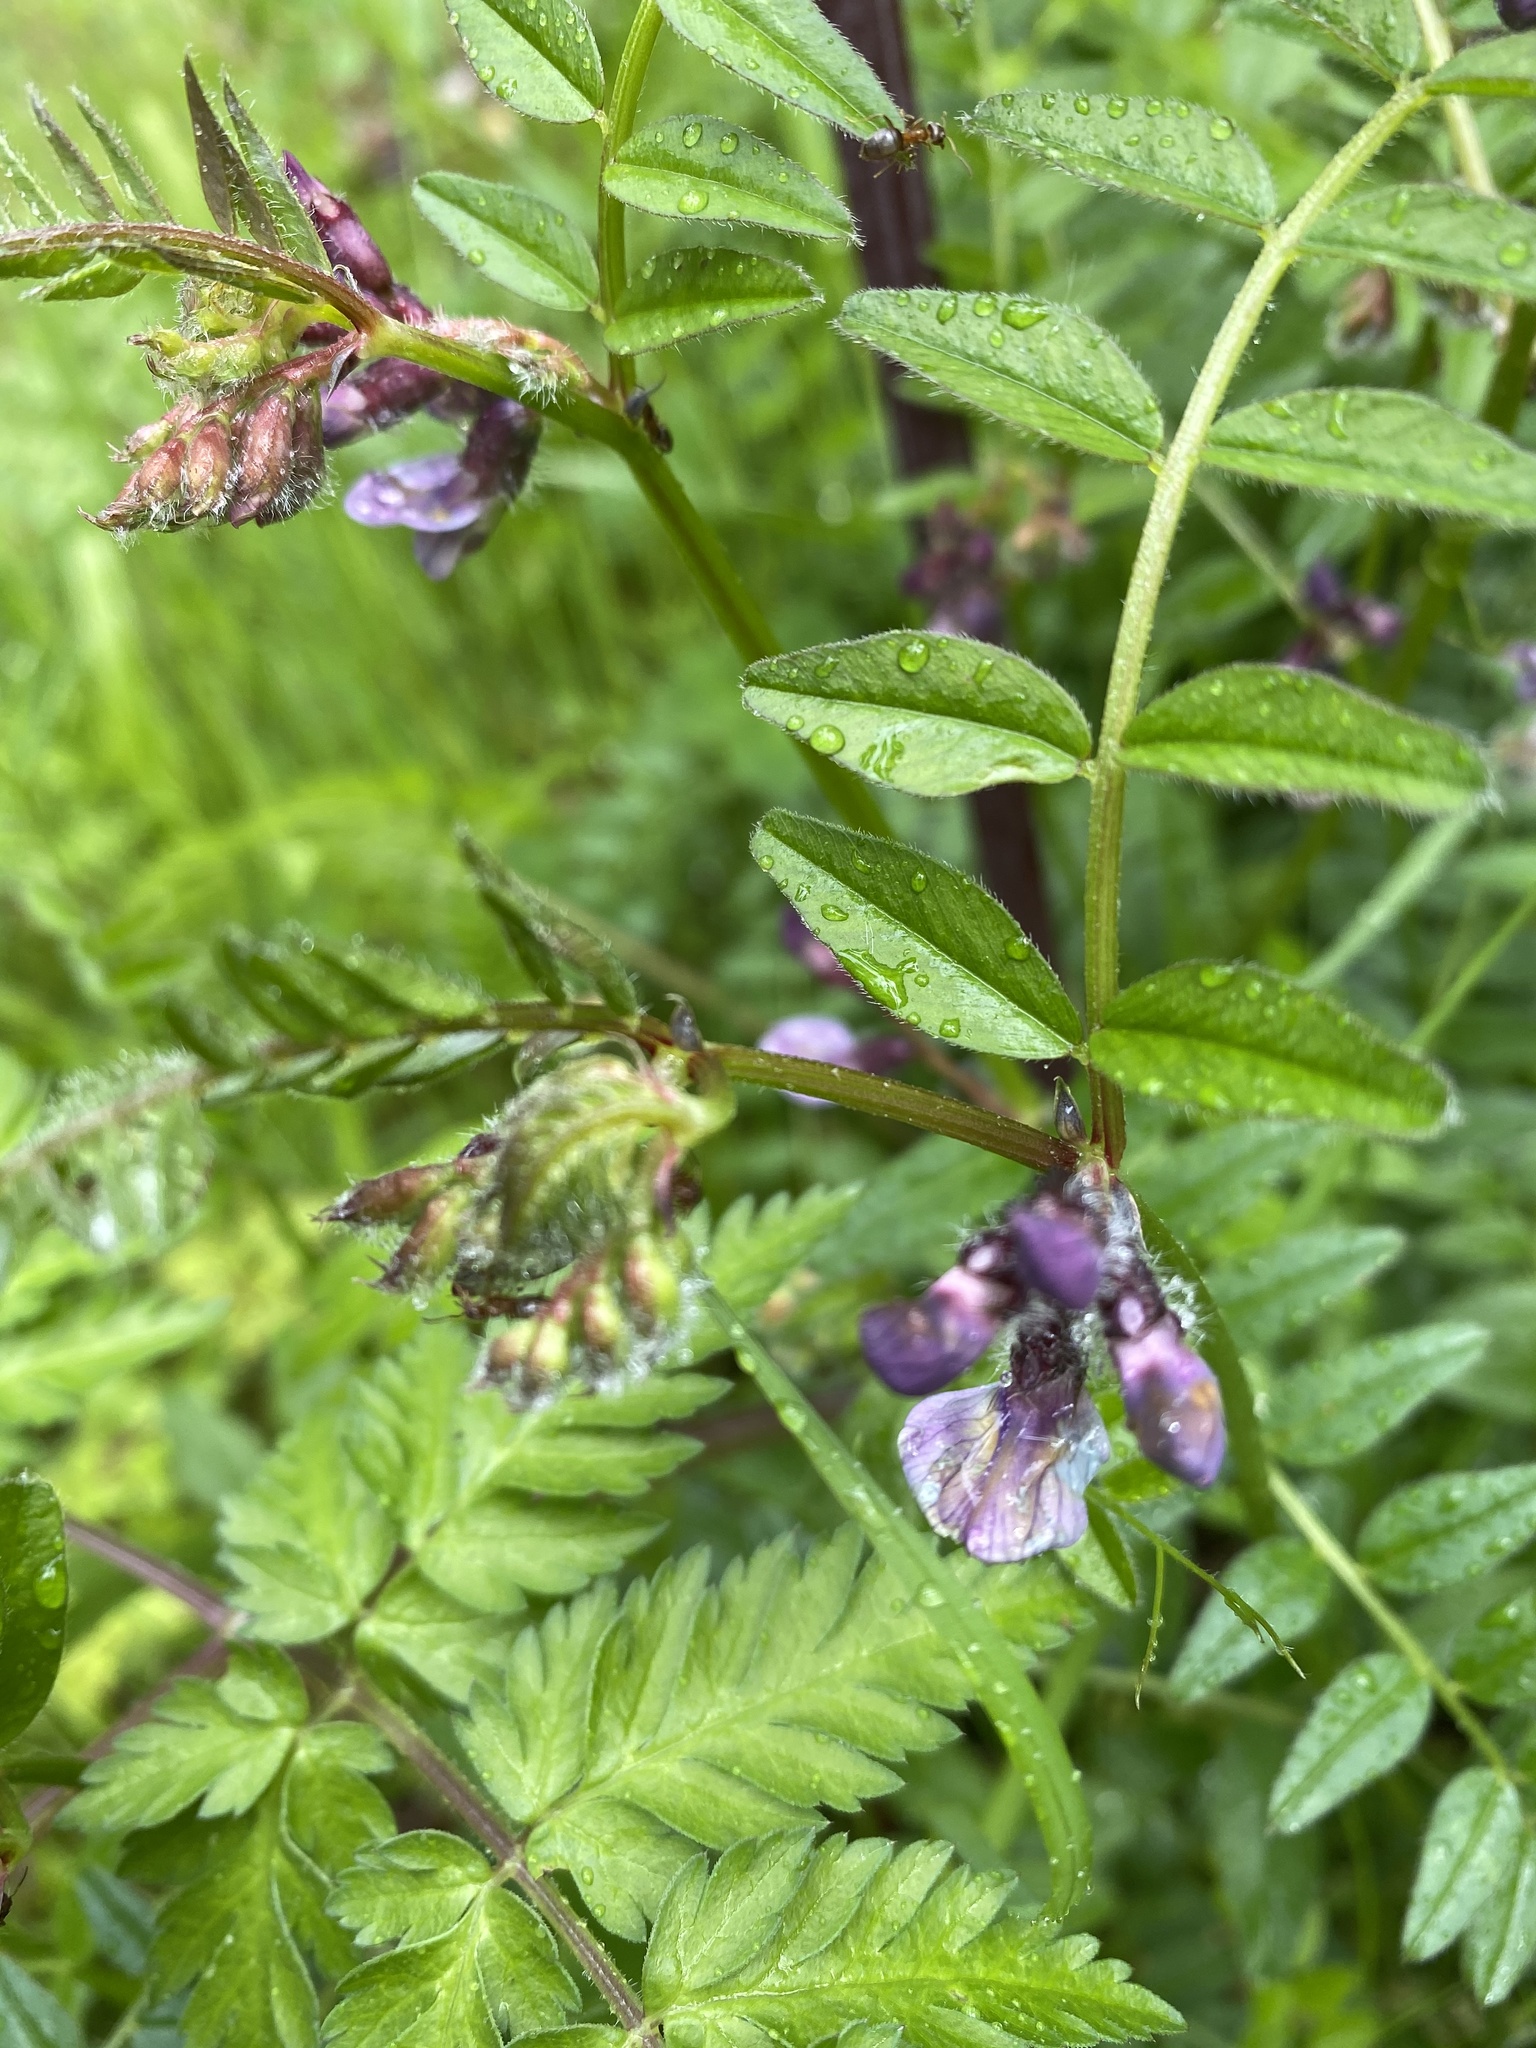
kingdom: Plantae
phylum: Tracheophyta
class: Magnoliopsida
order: Fabales
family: Fabaceae
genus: Vicia
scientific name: Vicia sepium
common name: Bush vetch
